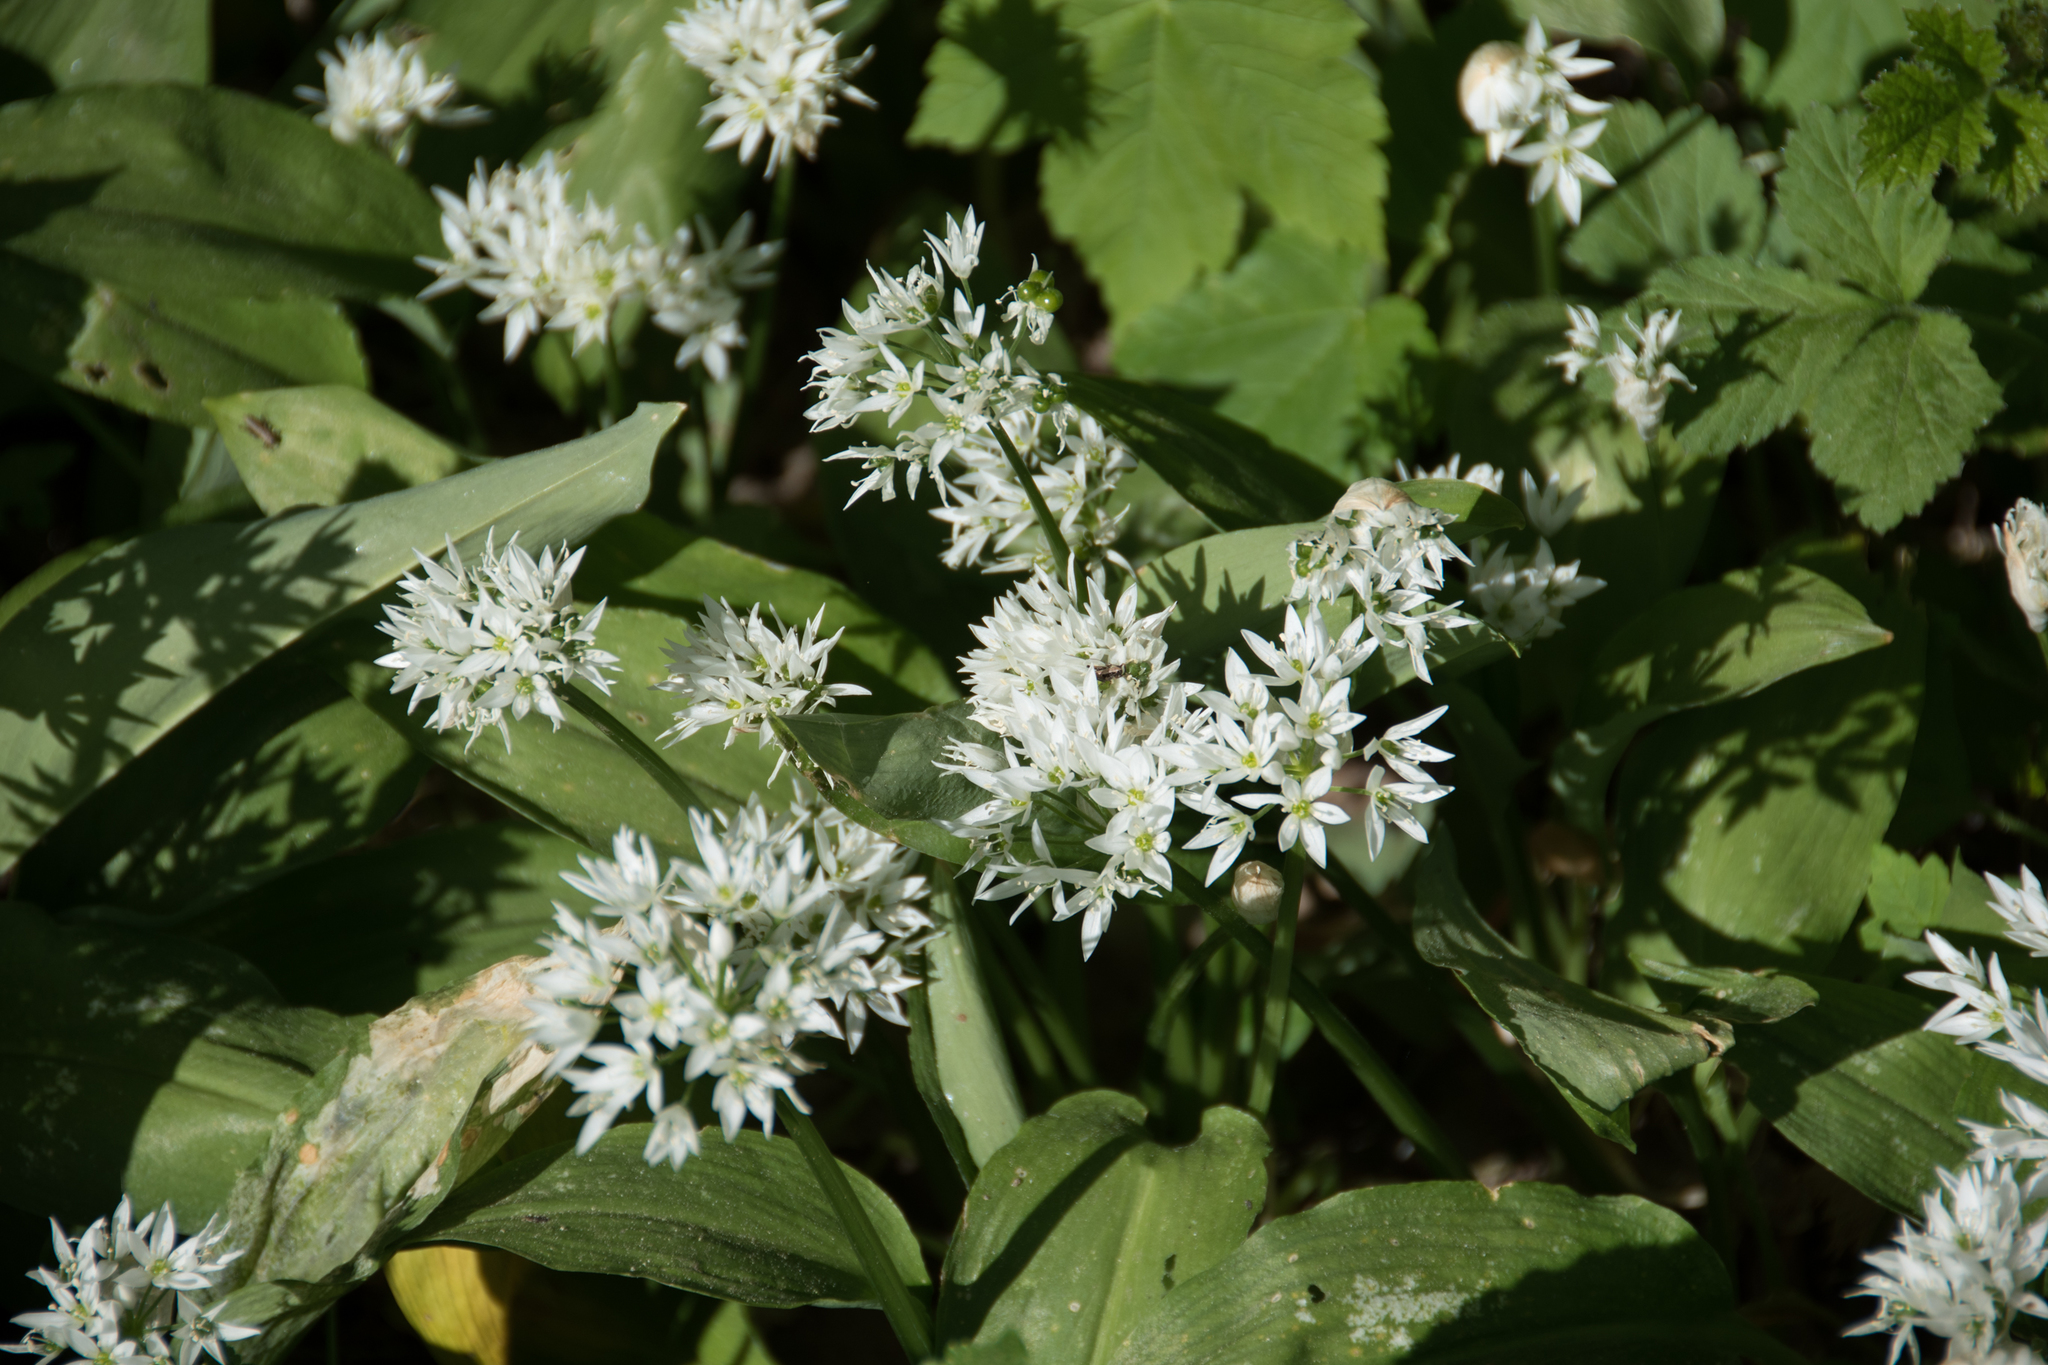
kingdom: Plantae
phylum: Tracheophyta
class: Liliopsida
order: Asparagales
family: Amaryllidaceae
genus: Allium
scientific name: Allium ursinum
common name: Ramsons
